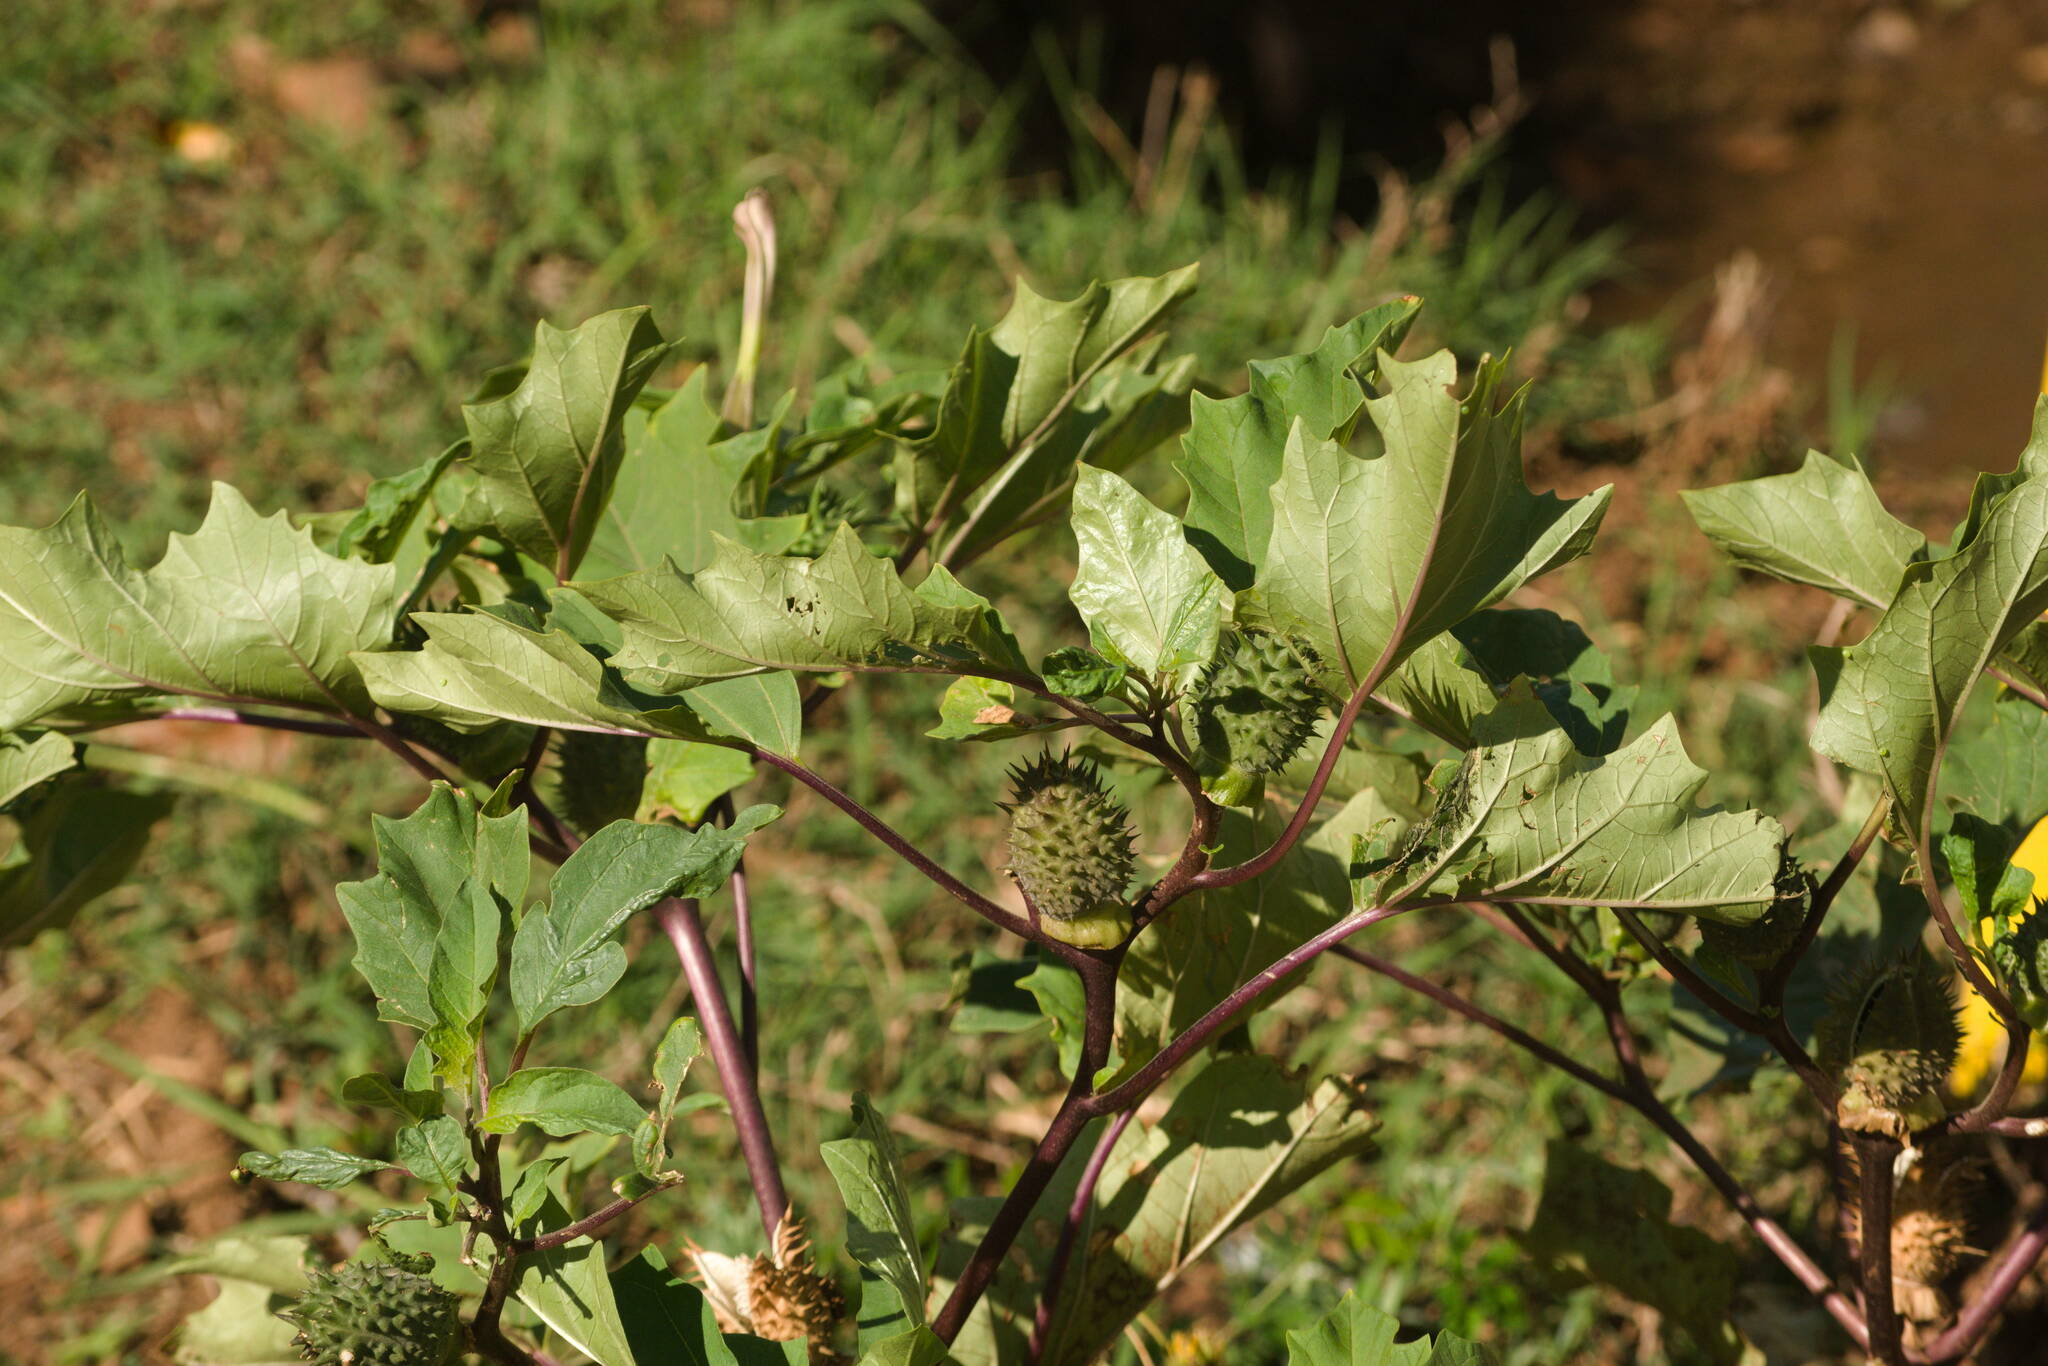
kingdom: Plantae
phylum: Tracheophyta
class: Magnoliopsida
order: Solanales
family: Solanaceae
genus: Datura
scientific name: Datura stramonium
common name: Thorn-apple
